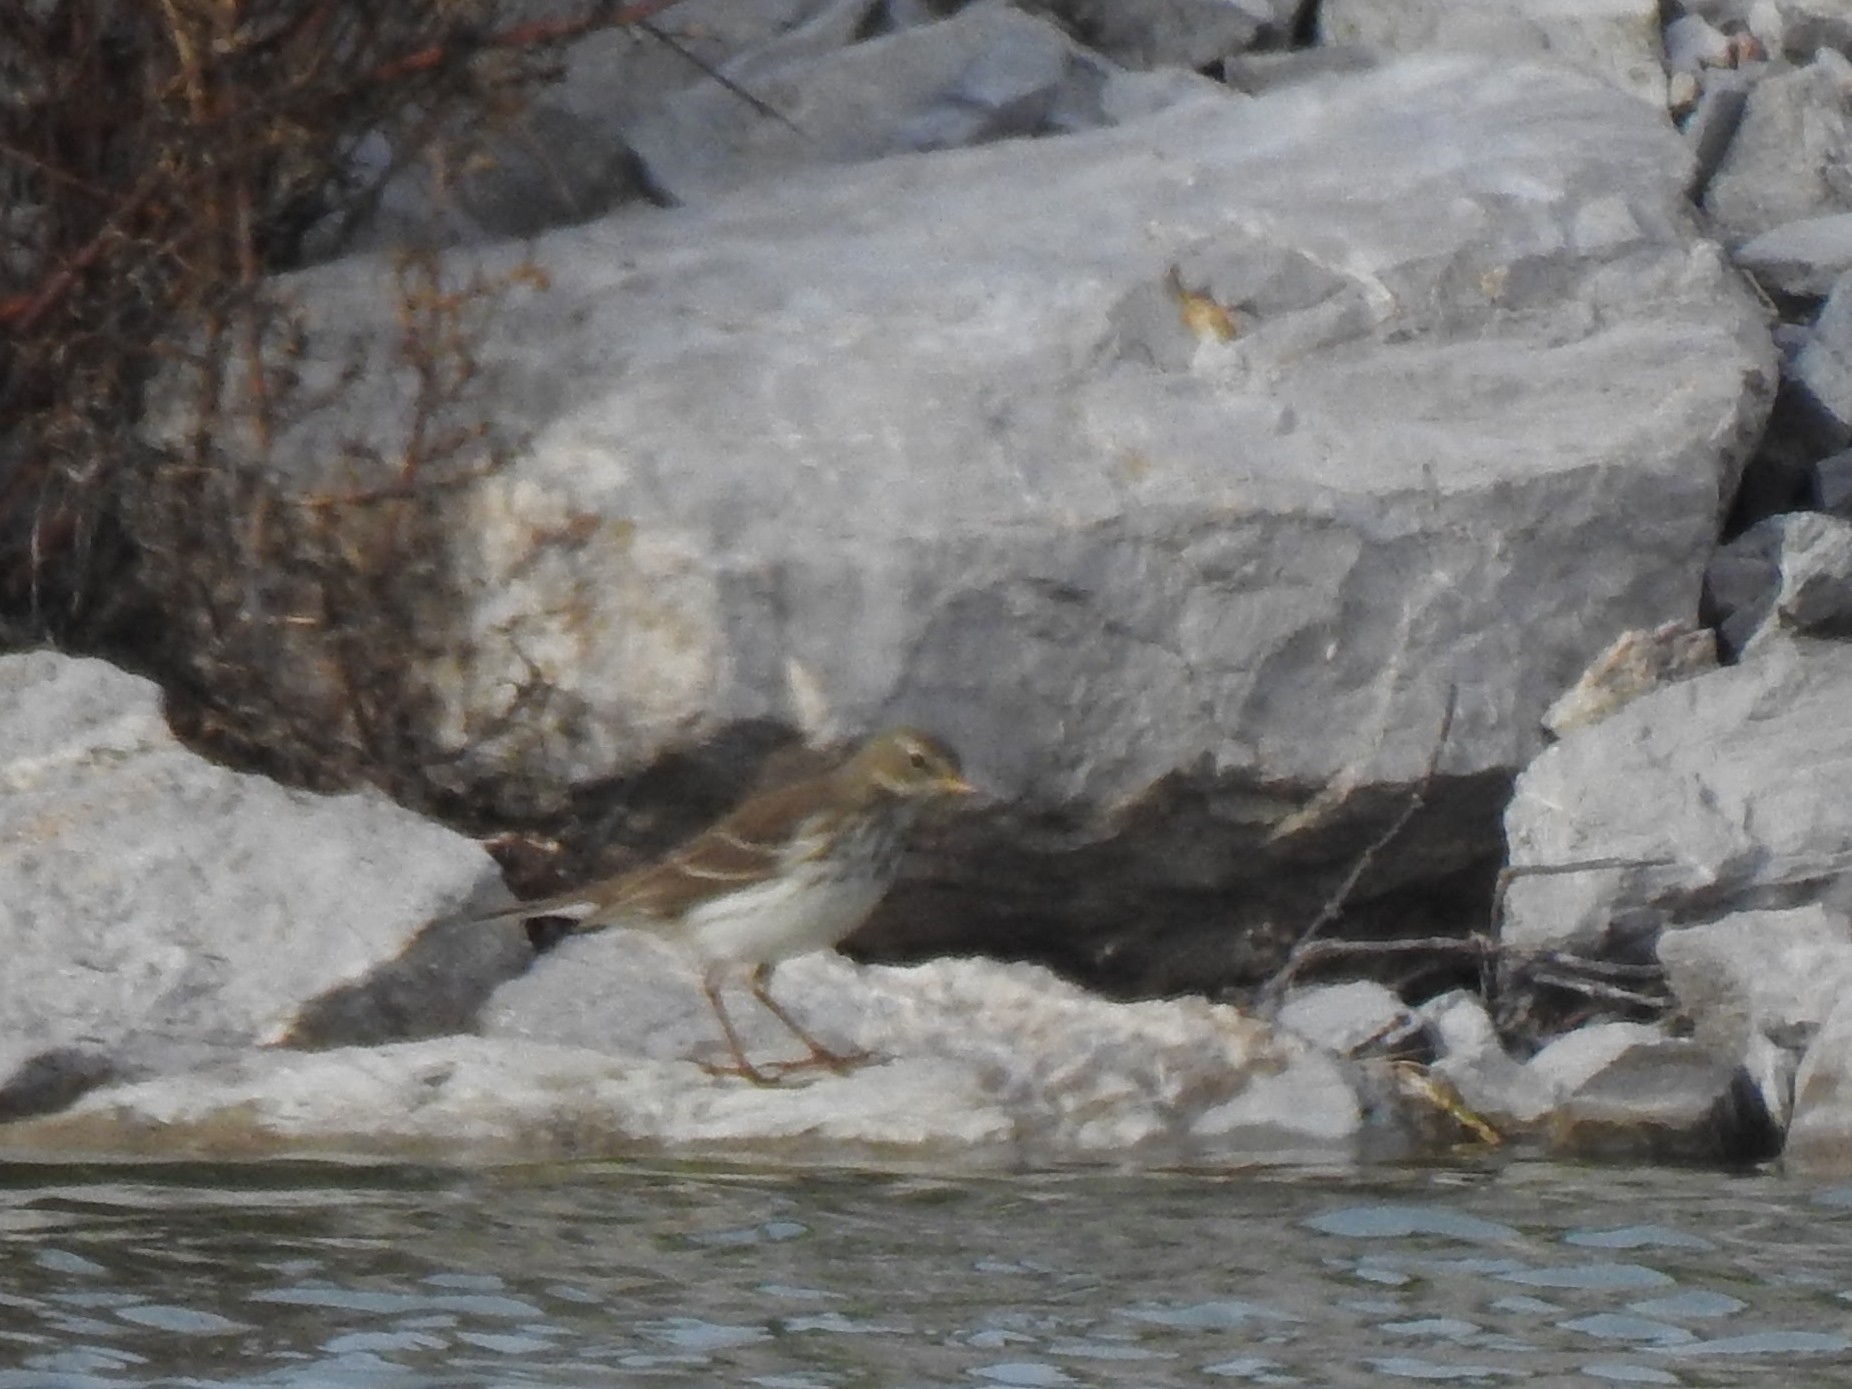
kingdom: Animalia
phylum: Chordata
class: Aves
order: Passeriformes
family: Motacillidae
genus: Anthus
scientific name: Anthus spinoletta
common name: Water pipit
